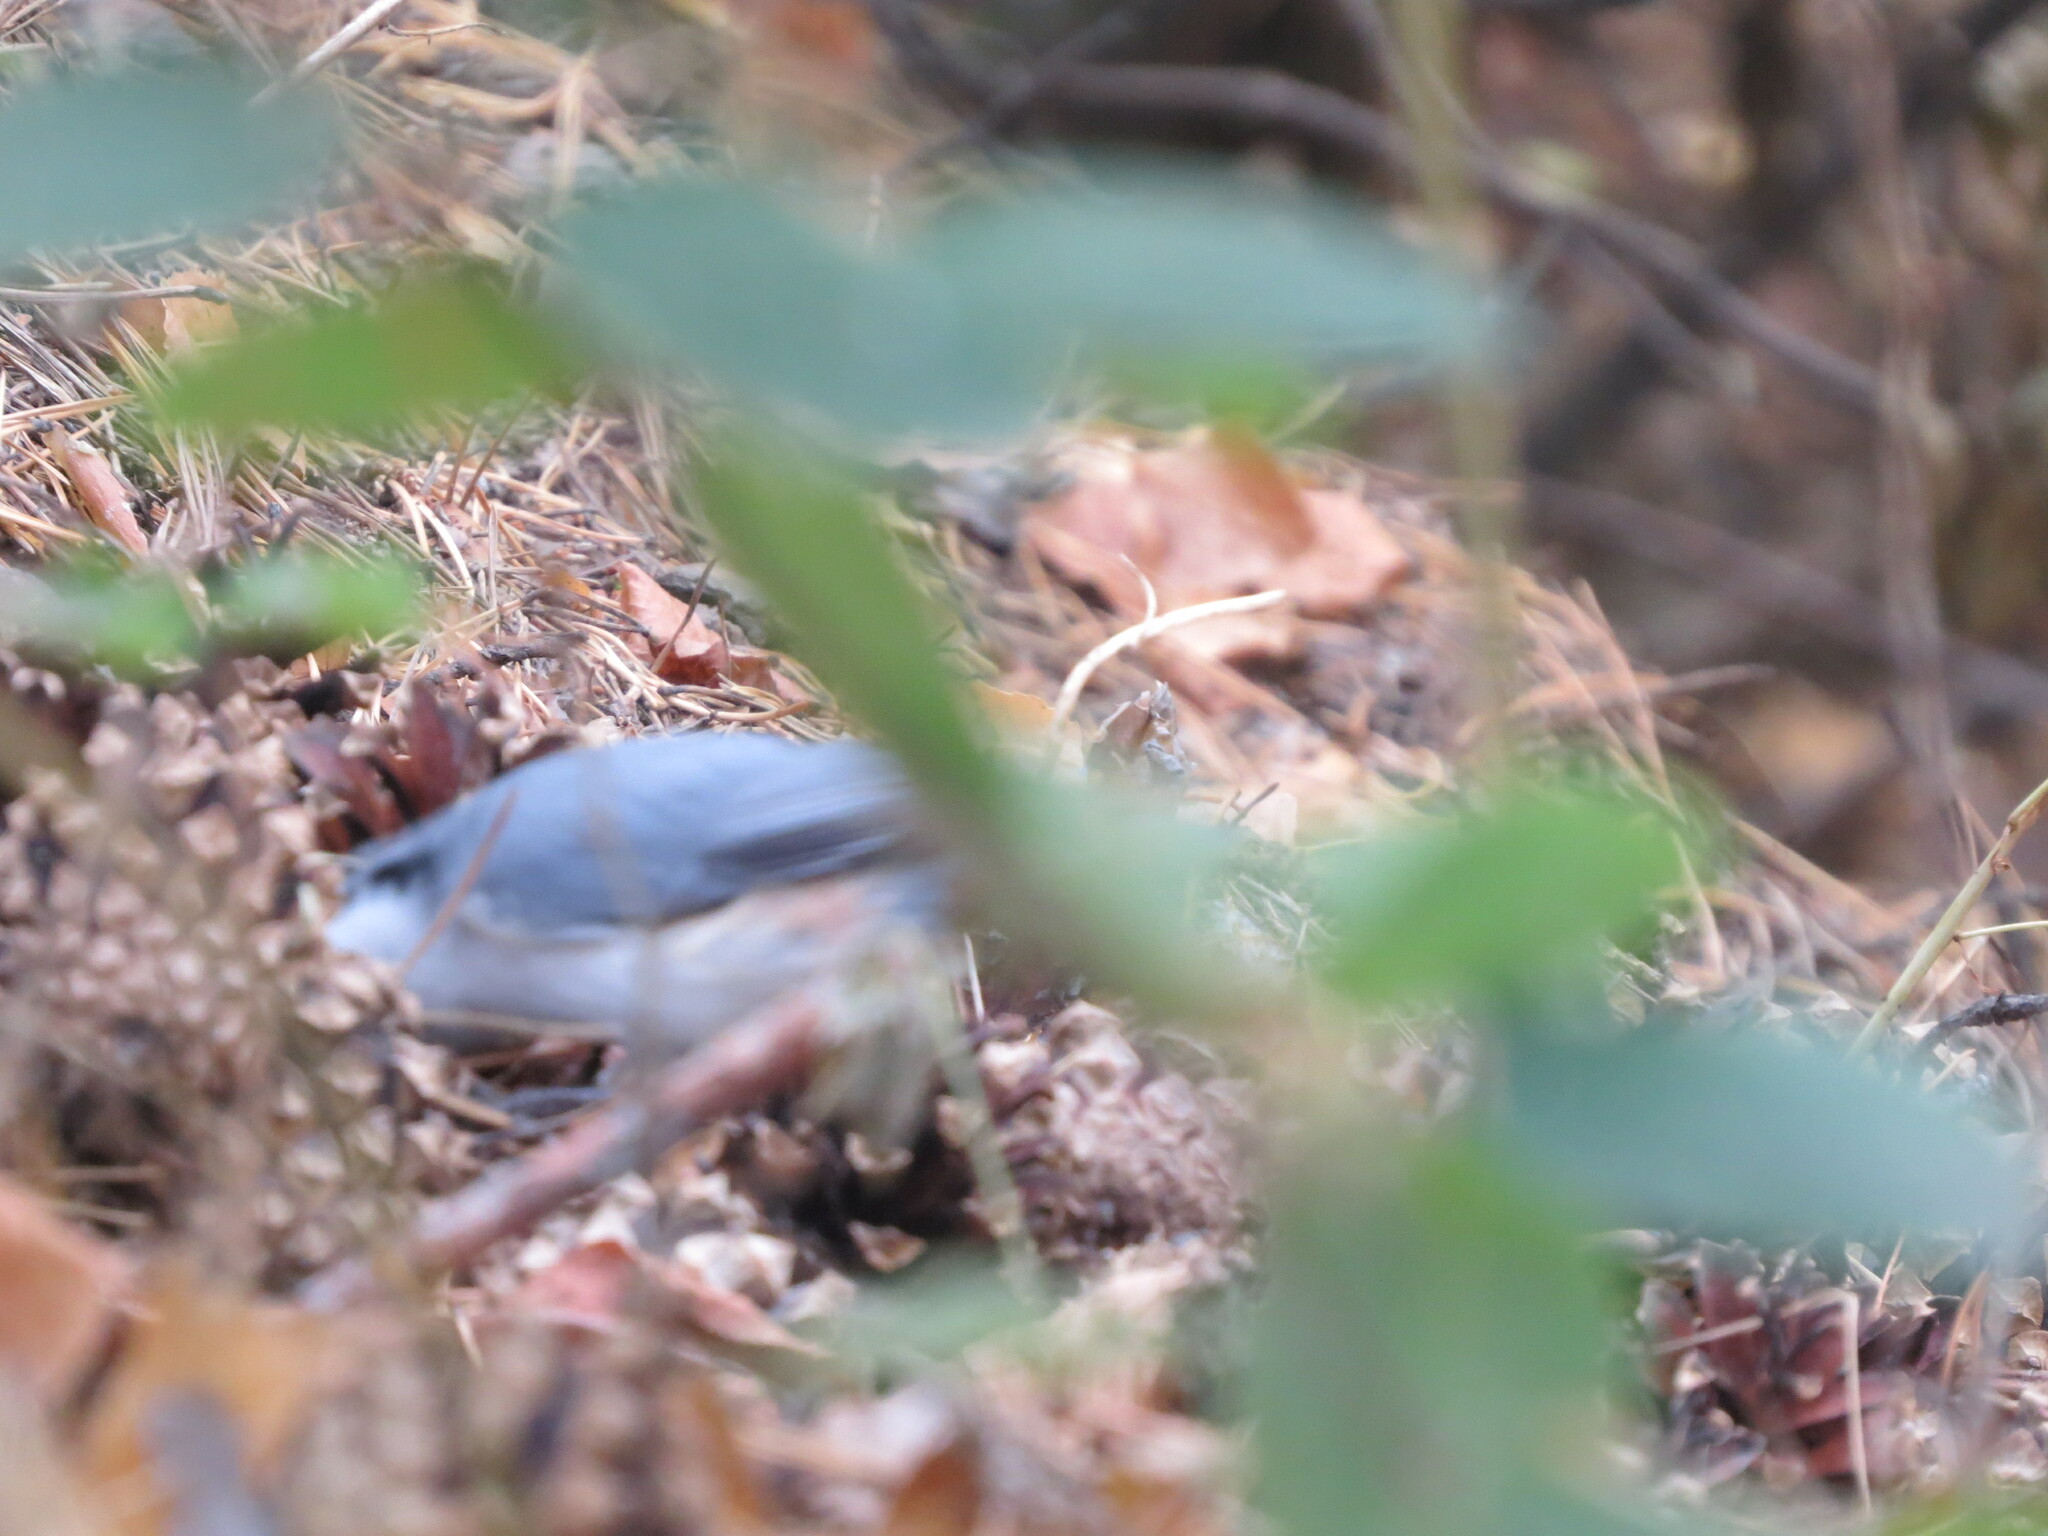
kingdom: Animalia
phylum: Chordata
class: Aves
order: Passeriformes
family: Sittidae
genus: Sitta
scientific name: Sitta europaea
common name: Eurasian nuthatch
